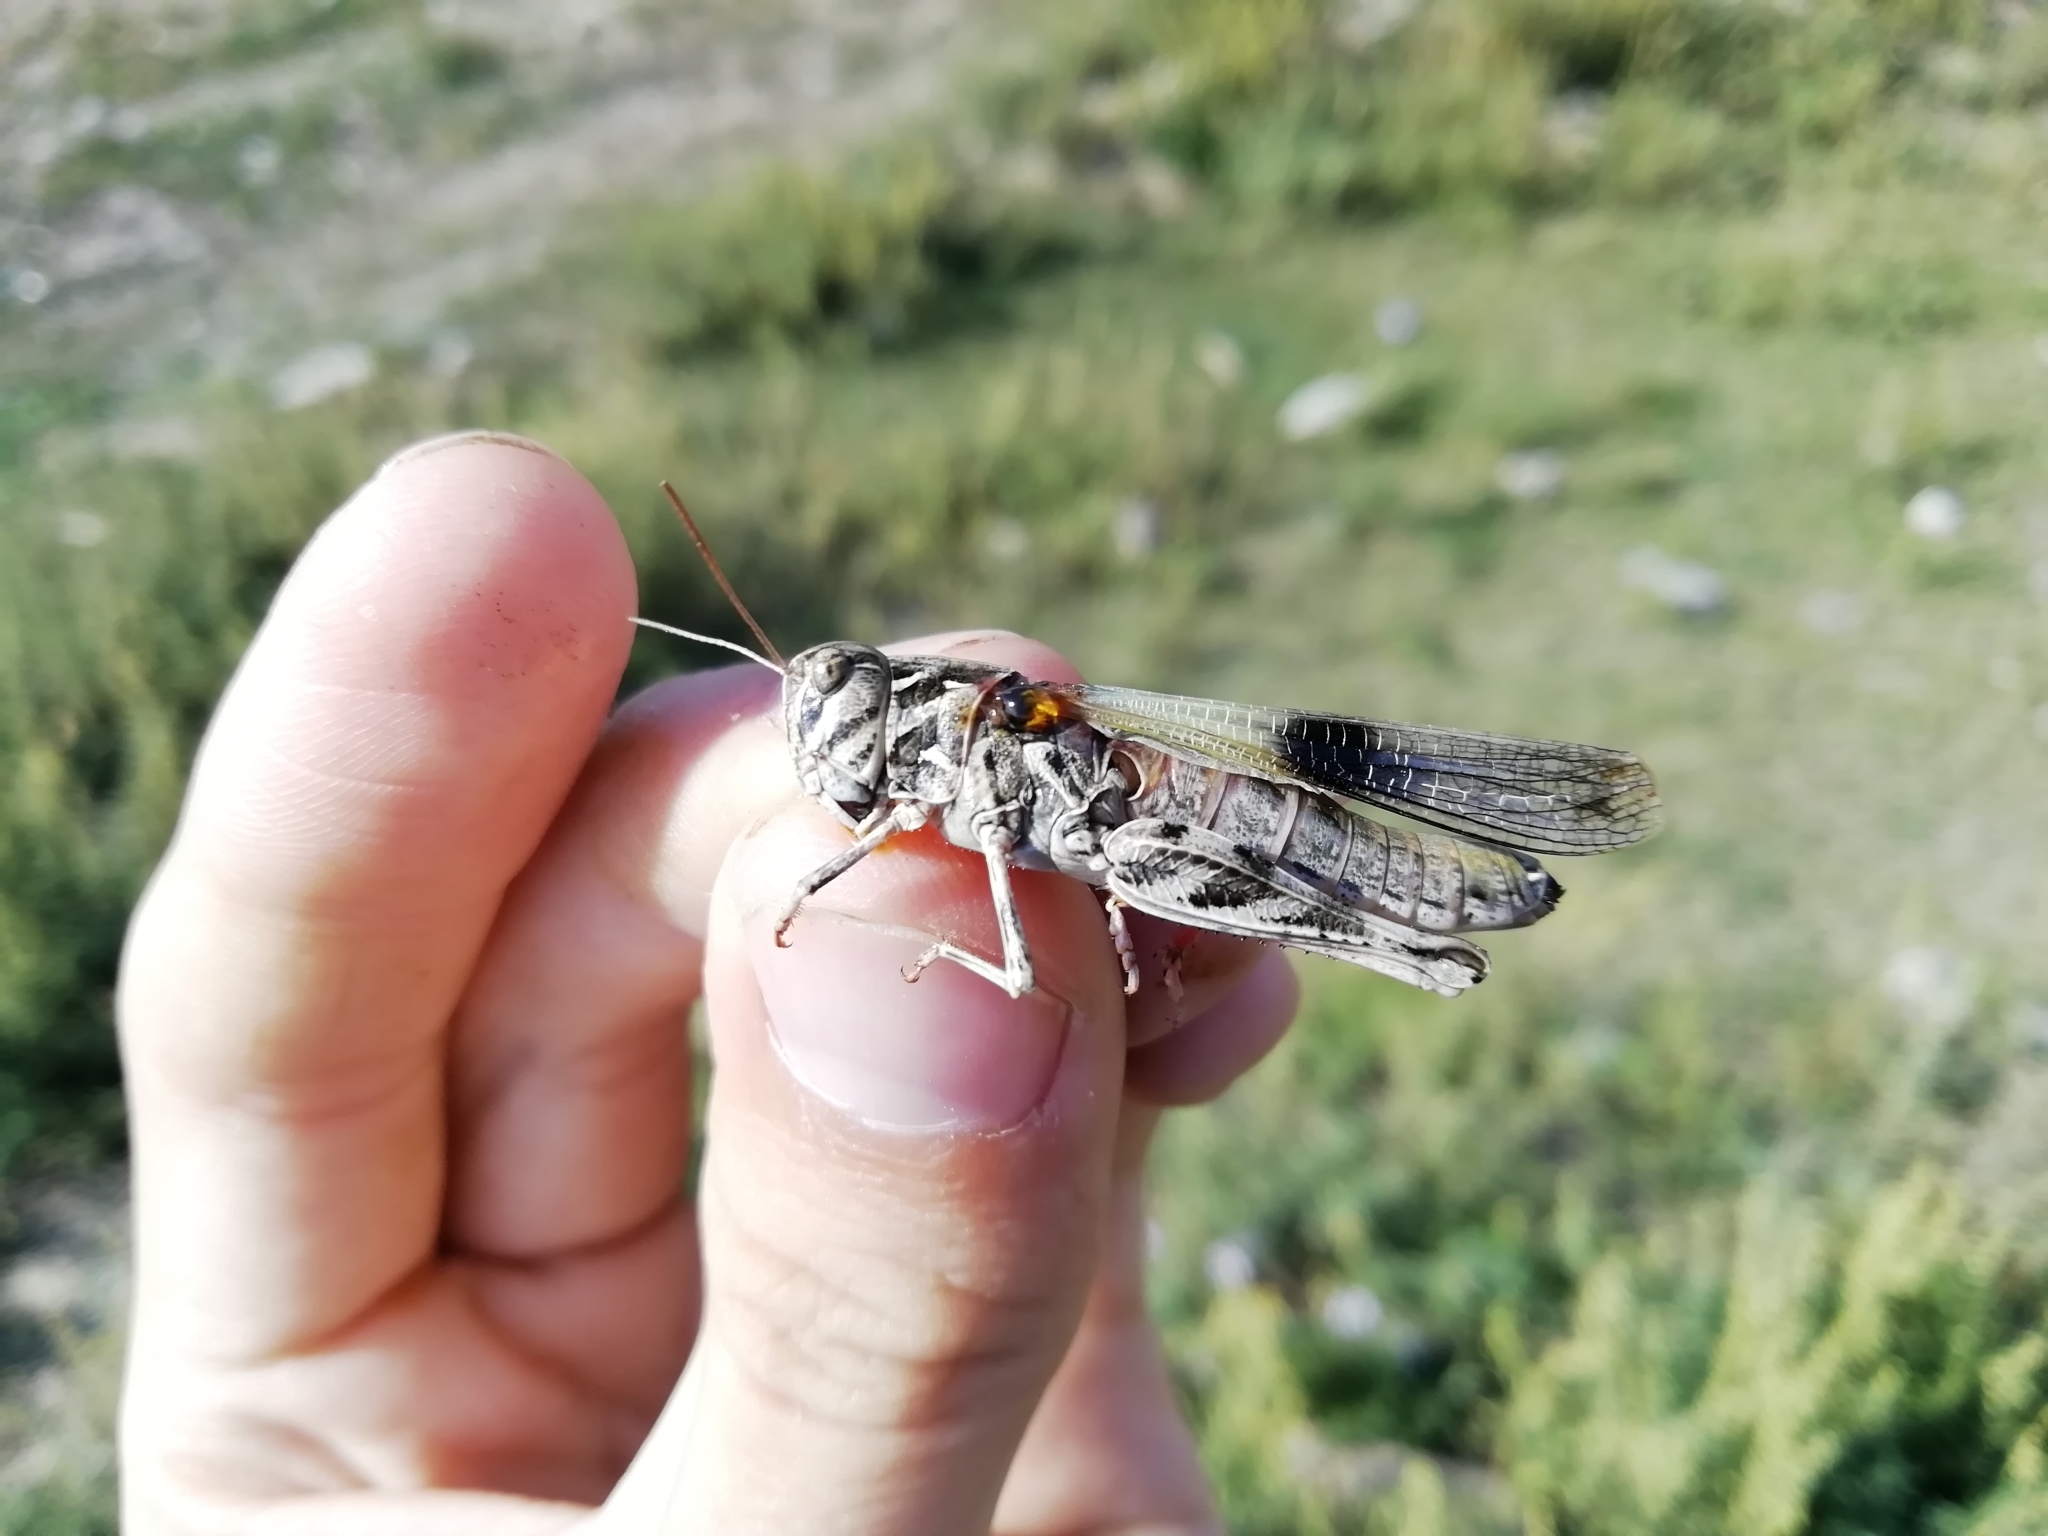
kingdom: Animalia
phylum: Arthropoda
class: Insecta
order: Orthoptera
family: Acrididae
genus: Oedaleus
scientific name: Oedaleus decorus
